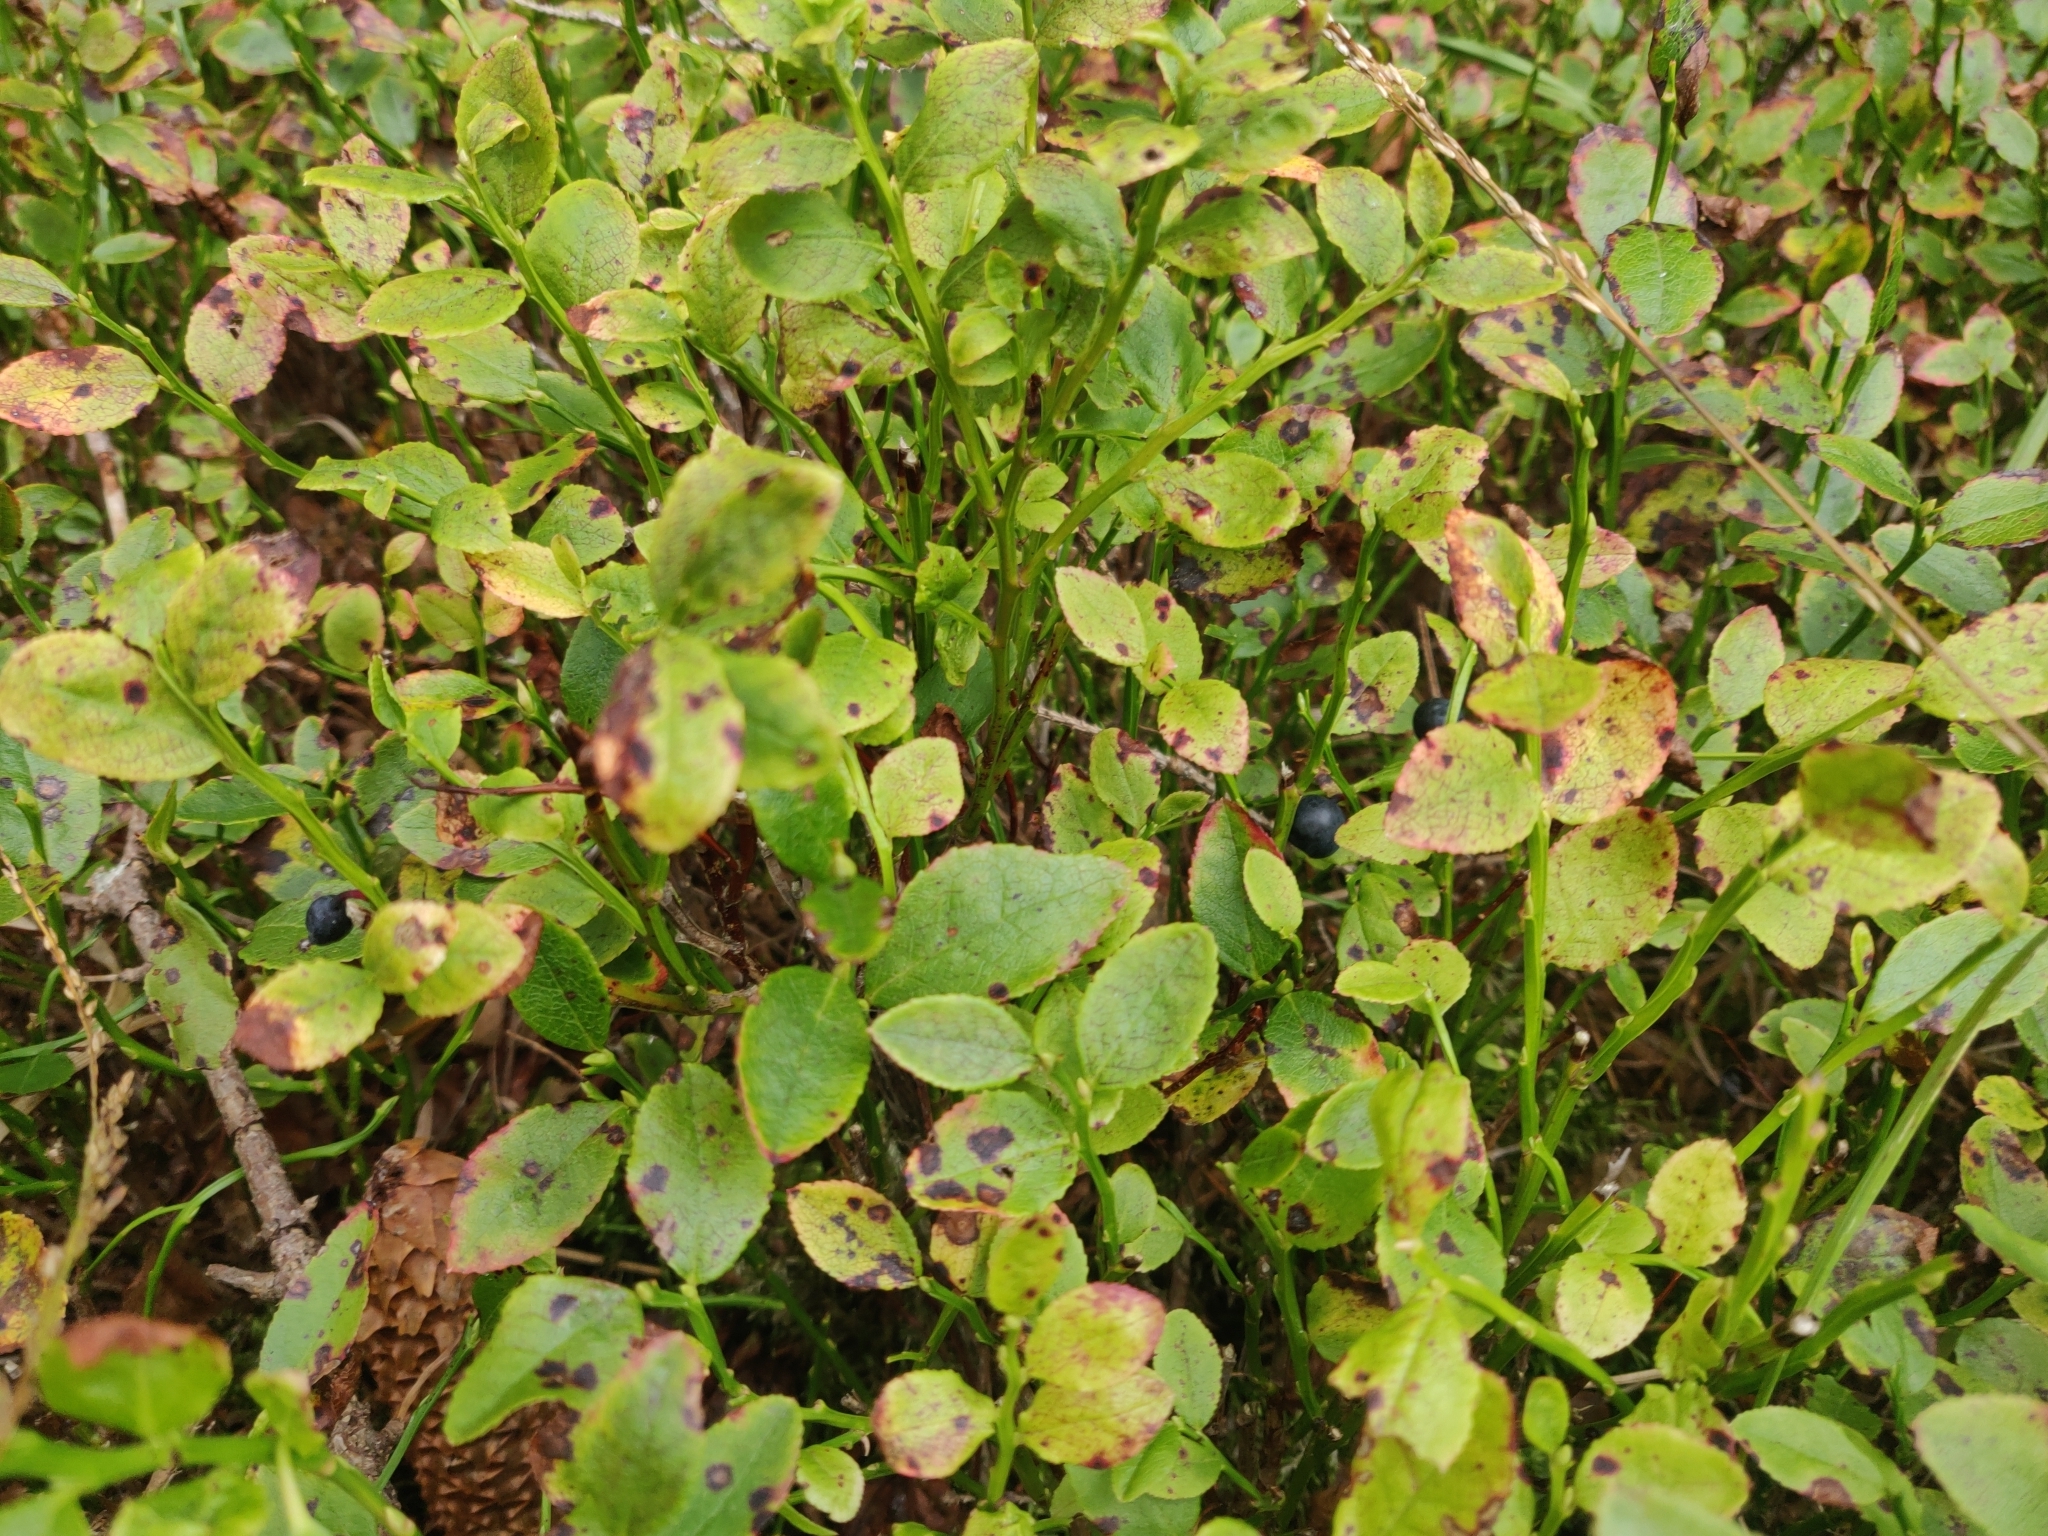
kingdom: Plantae
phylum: Tracheophyta
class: Magnoliopsida
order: Ericales
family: Ericaceae
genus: Vaccinium
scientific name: Vaccinium myrtillus
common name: Bilberry
